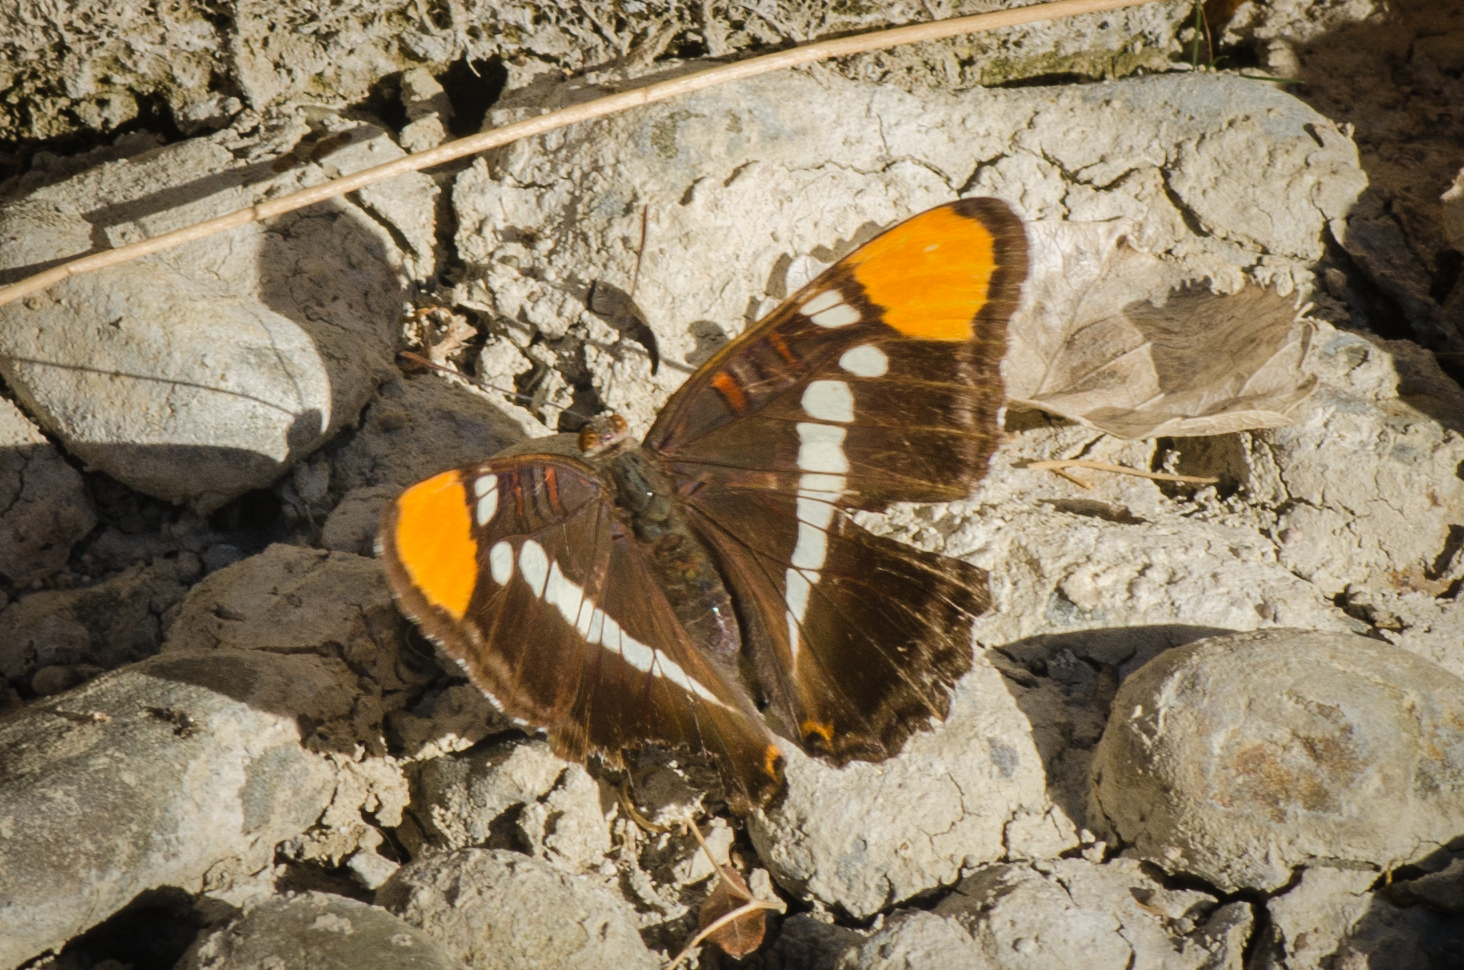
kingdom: Animalia
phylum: Arthropoda
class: Insecta
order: Lepidoptera
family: Nymphalidae
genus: Limenitis
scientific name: Limenitis bredowii
